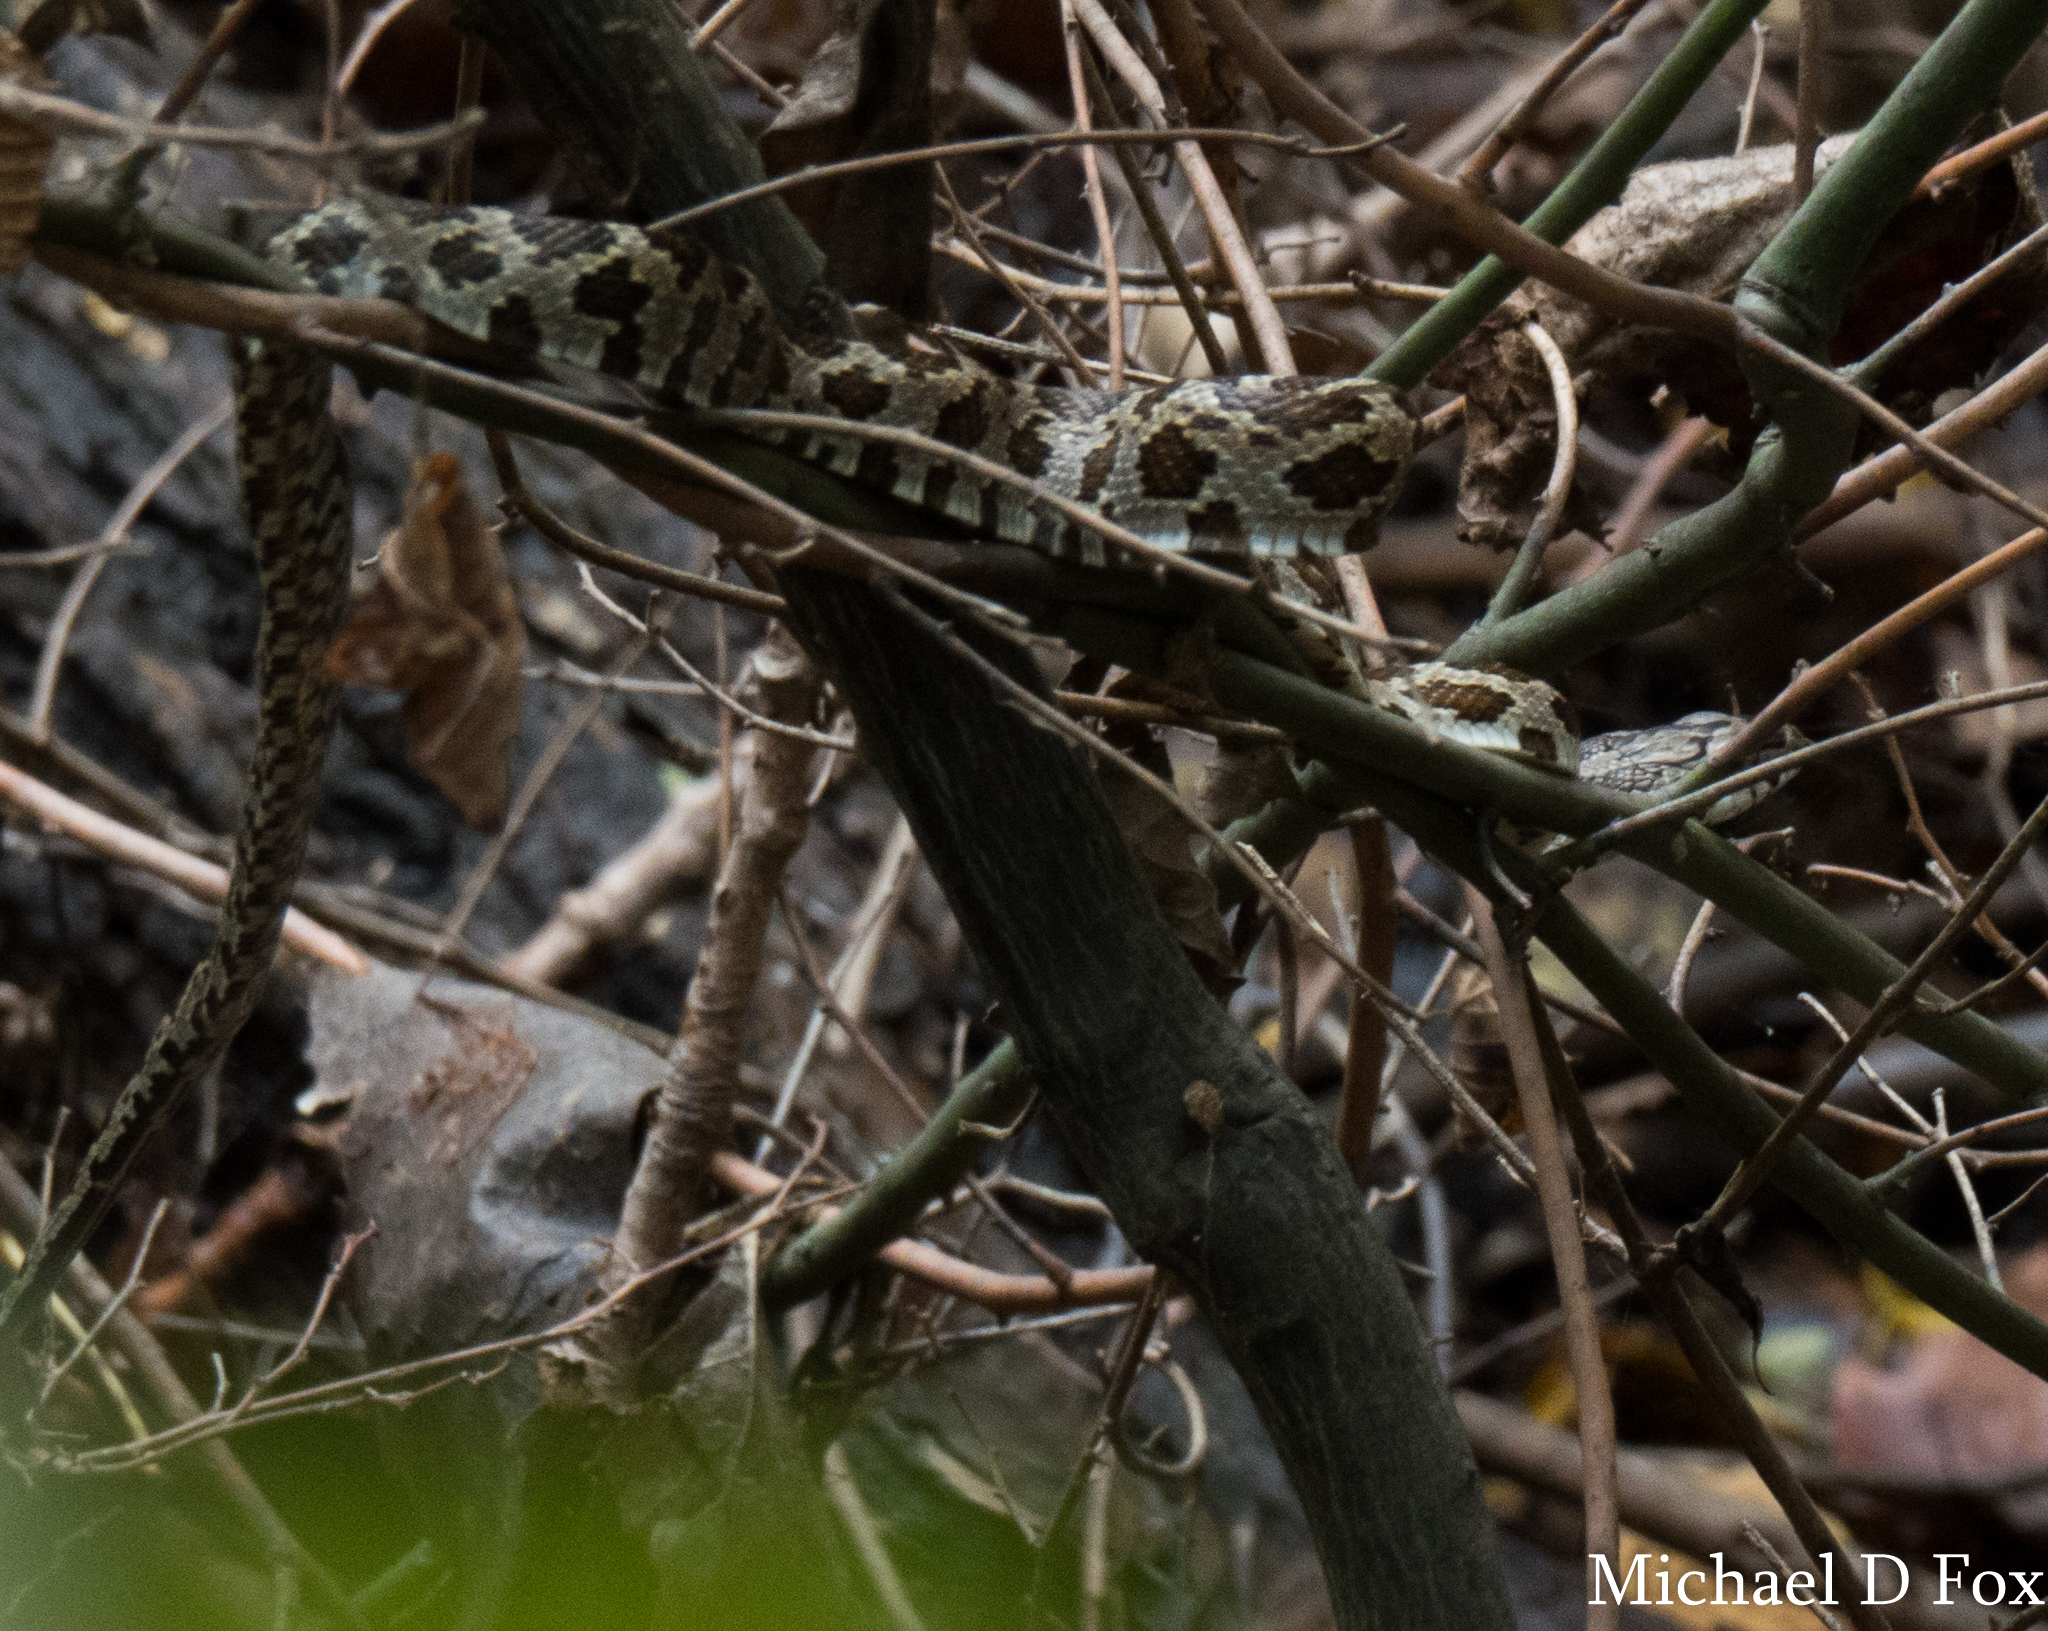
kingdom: Animalia
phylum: Chordata
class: Squamata
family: Colubridae
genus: Pantherophis
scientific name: Pantherophis obsoletus
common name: Black rat snake
